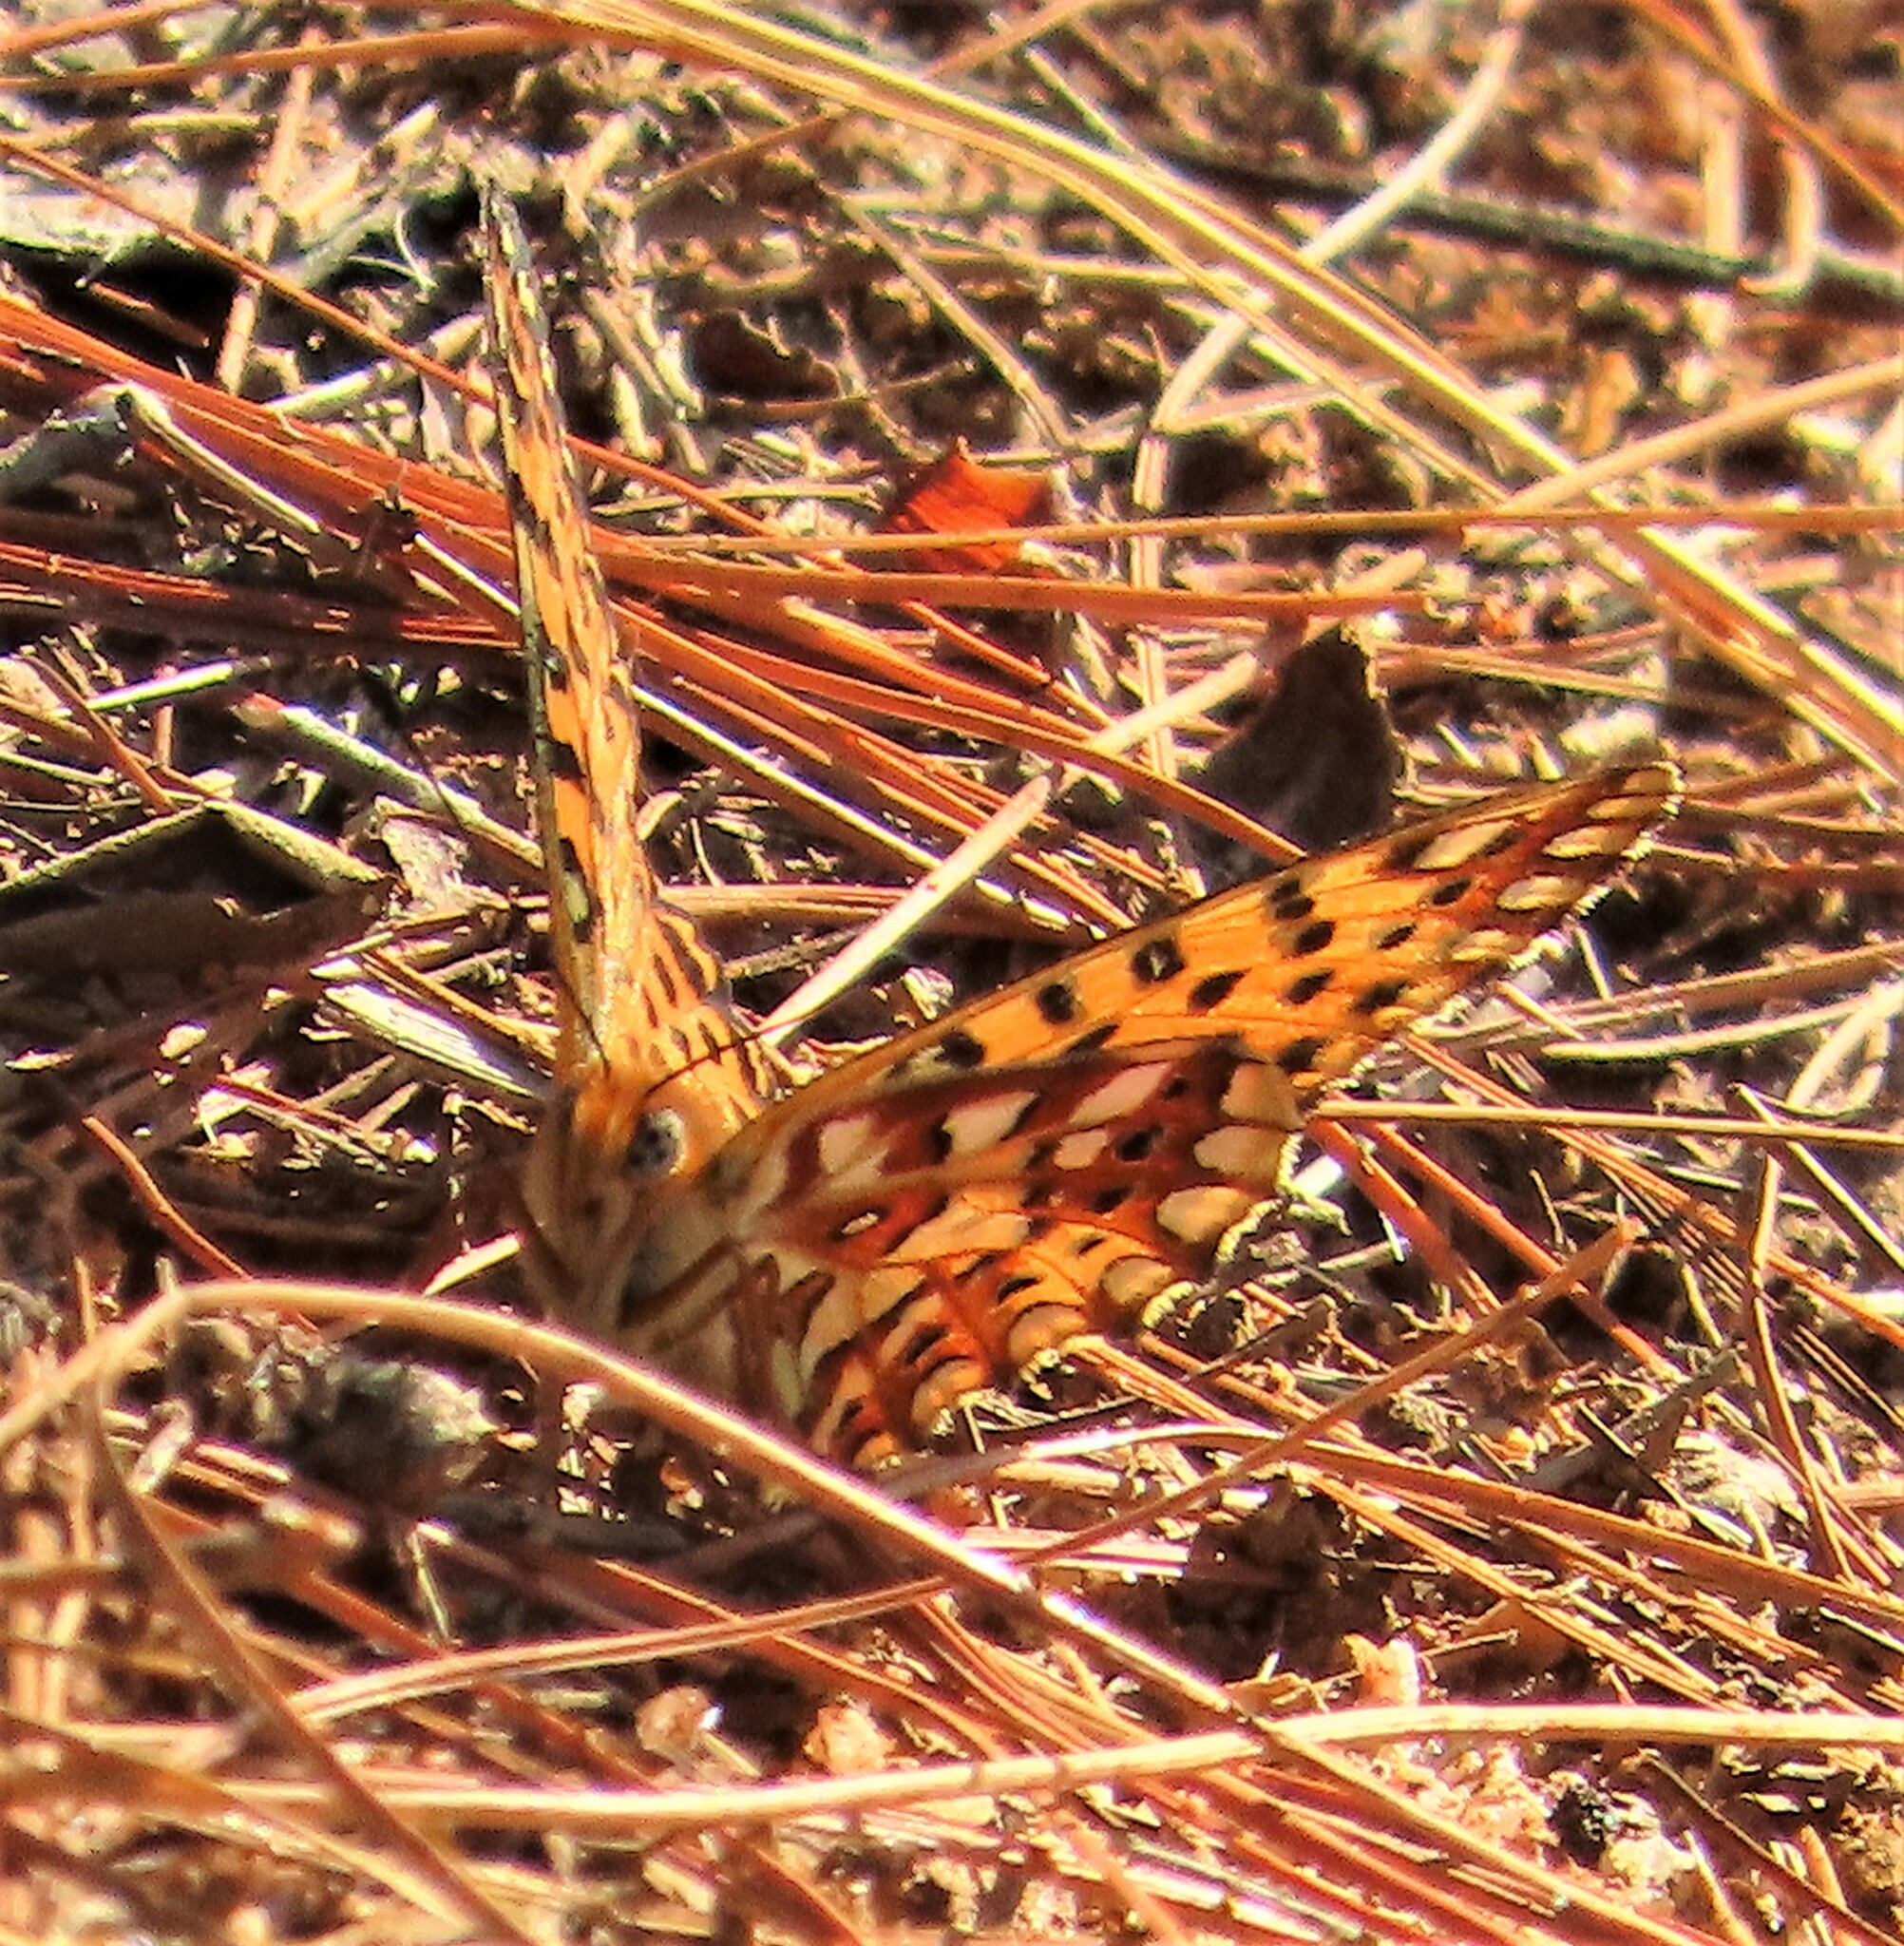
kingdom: Animalia
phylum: Arthropoda
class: Insecta
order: Lepidoptera
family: Nymphalidae
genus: Issoria
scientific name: Issoria smaragdifera
